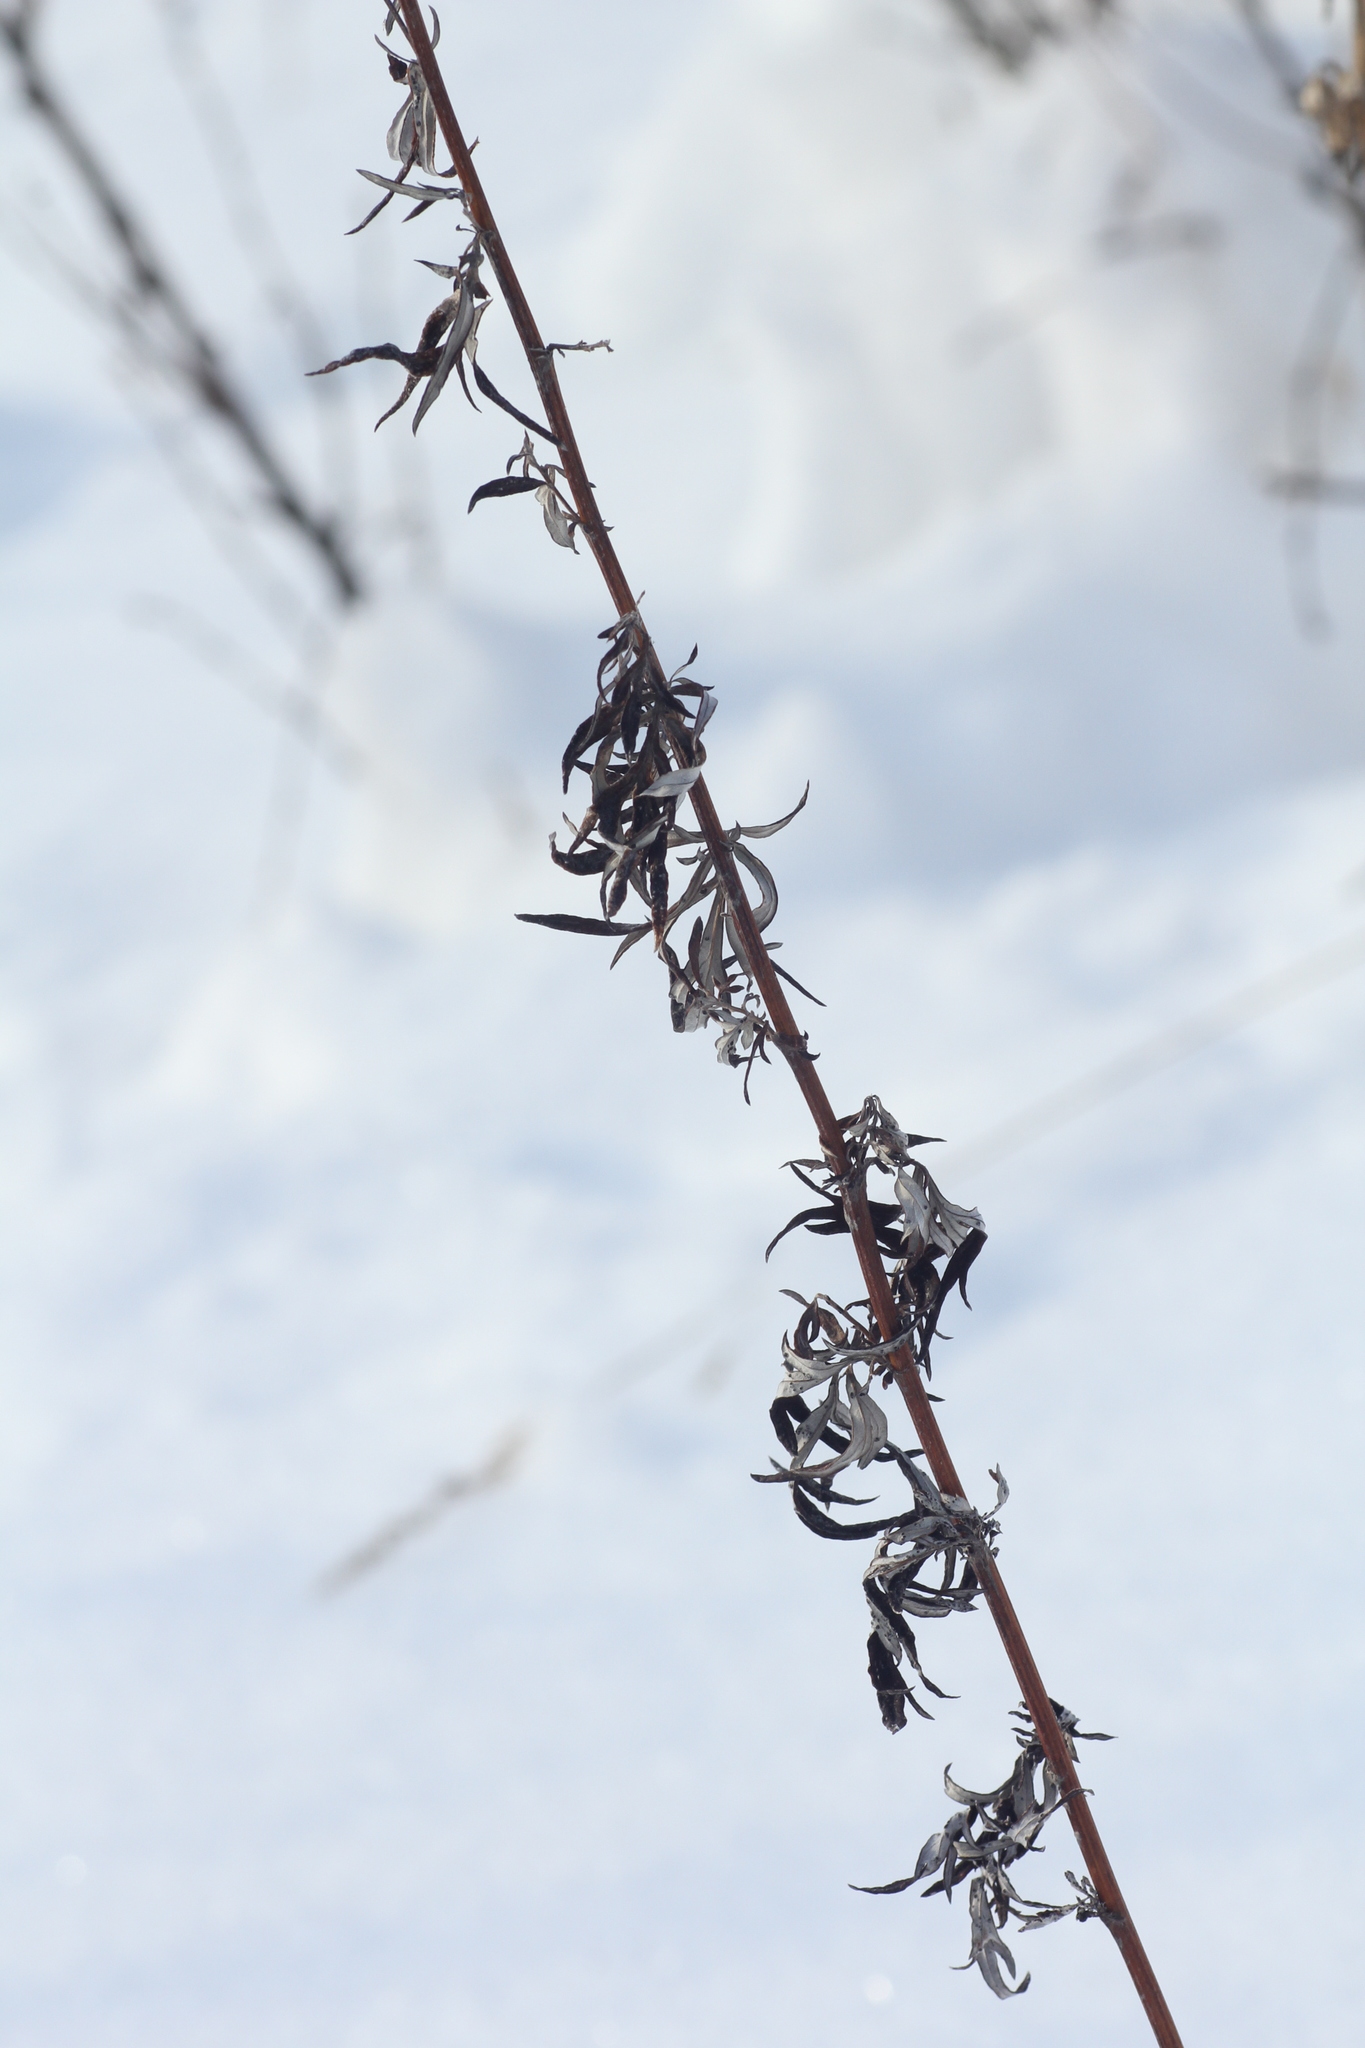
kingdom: Plantae
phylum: Tracheophyta
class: Magnoliopsida
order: Asterales
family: Asteraceae
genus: Artemisia
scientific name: Artemisia vulgaris
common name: Mugwort
